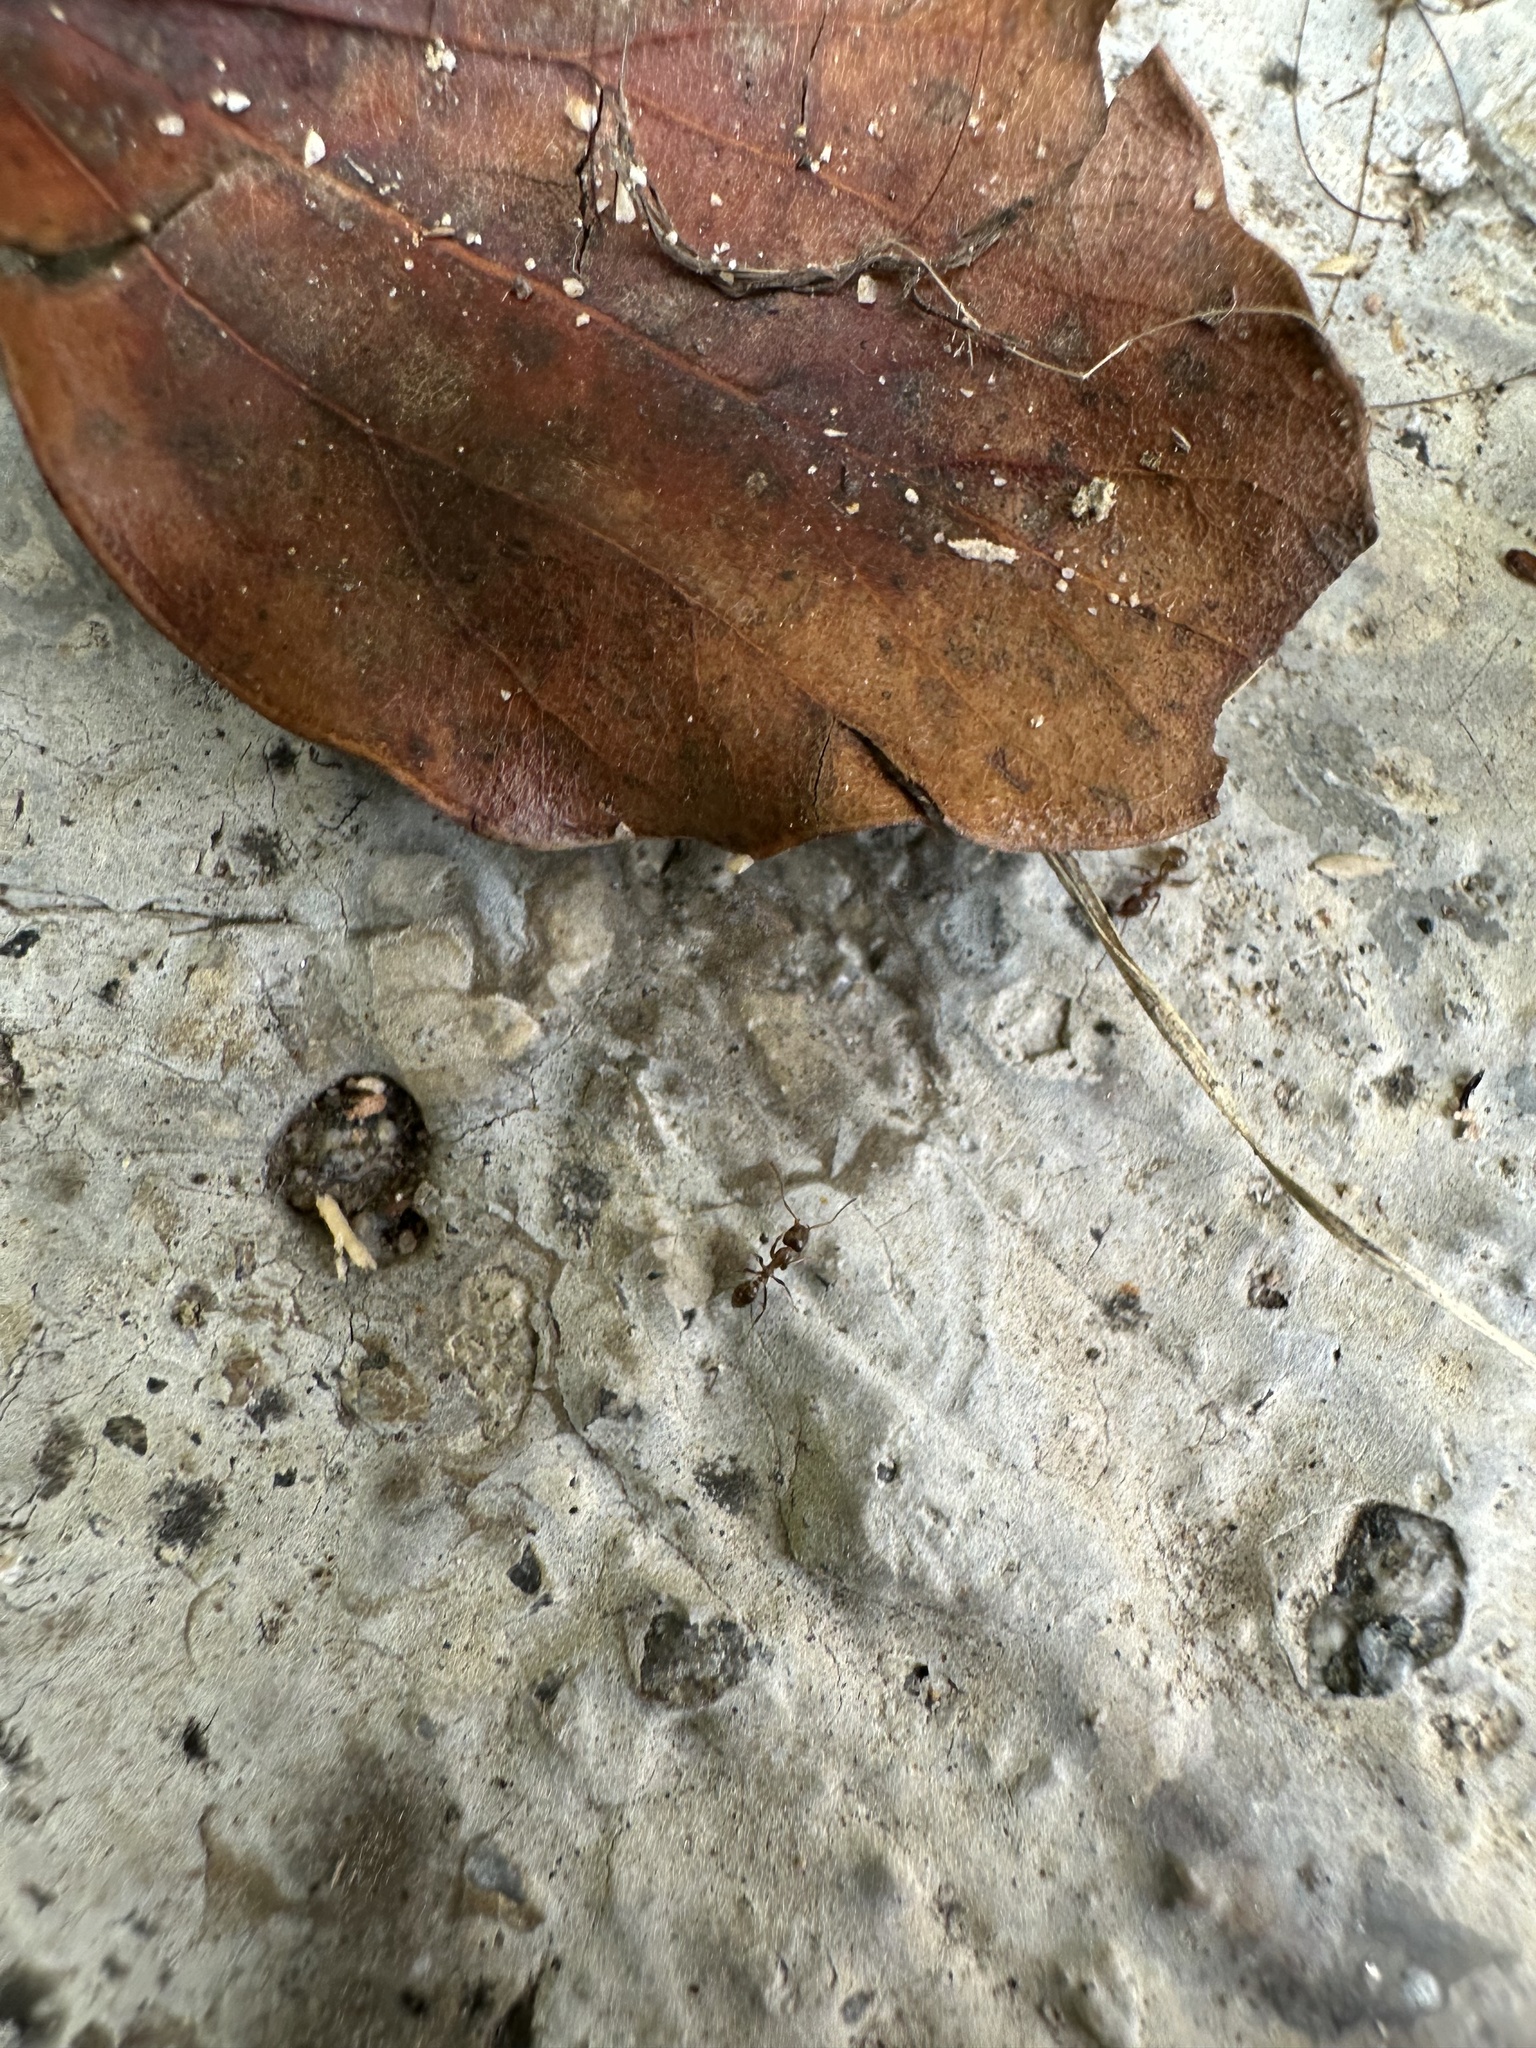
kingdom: Animalia
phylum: Arthropoda
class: Insecta
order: Hymenoptera
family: Formicidae
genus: Linepithema
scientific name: Linepithema humile
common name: Argentine ant
